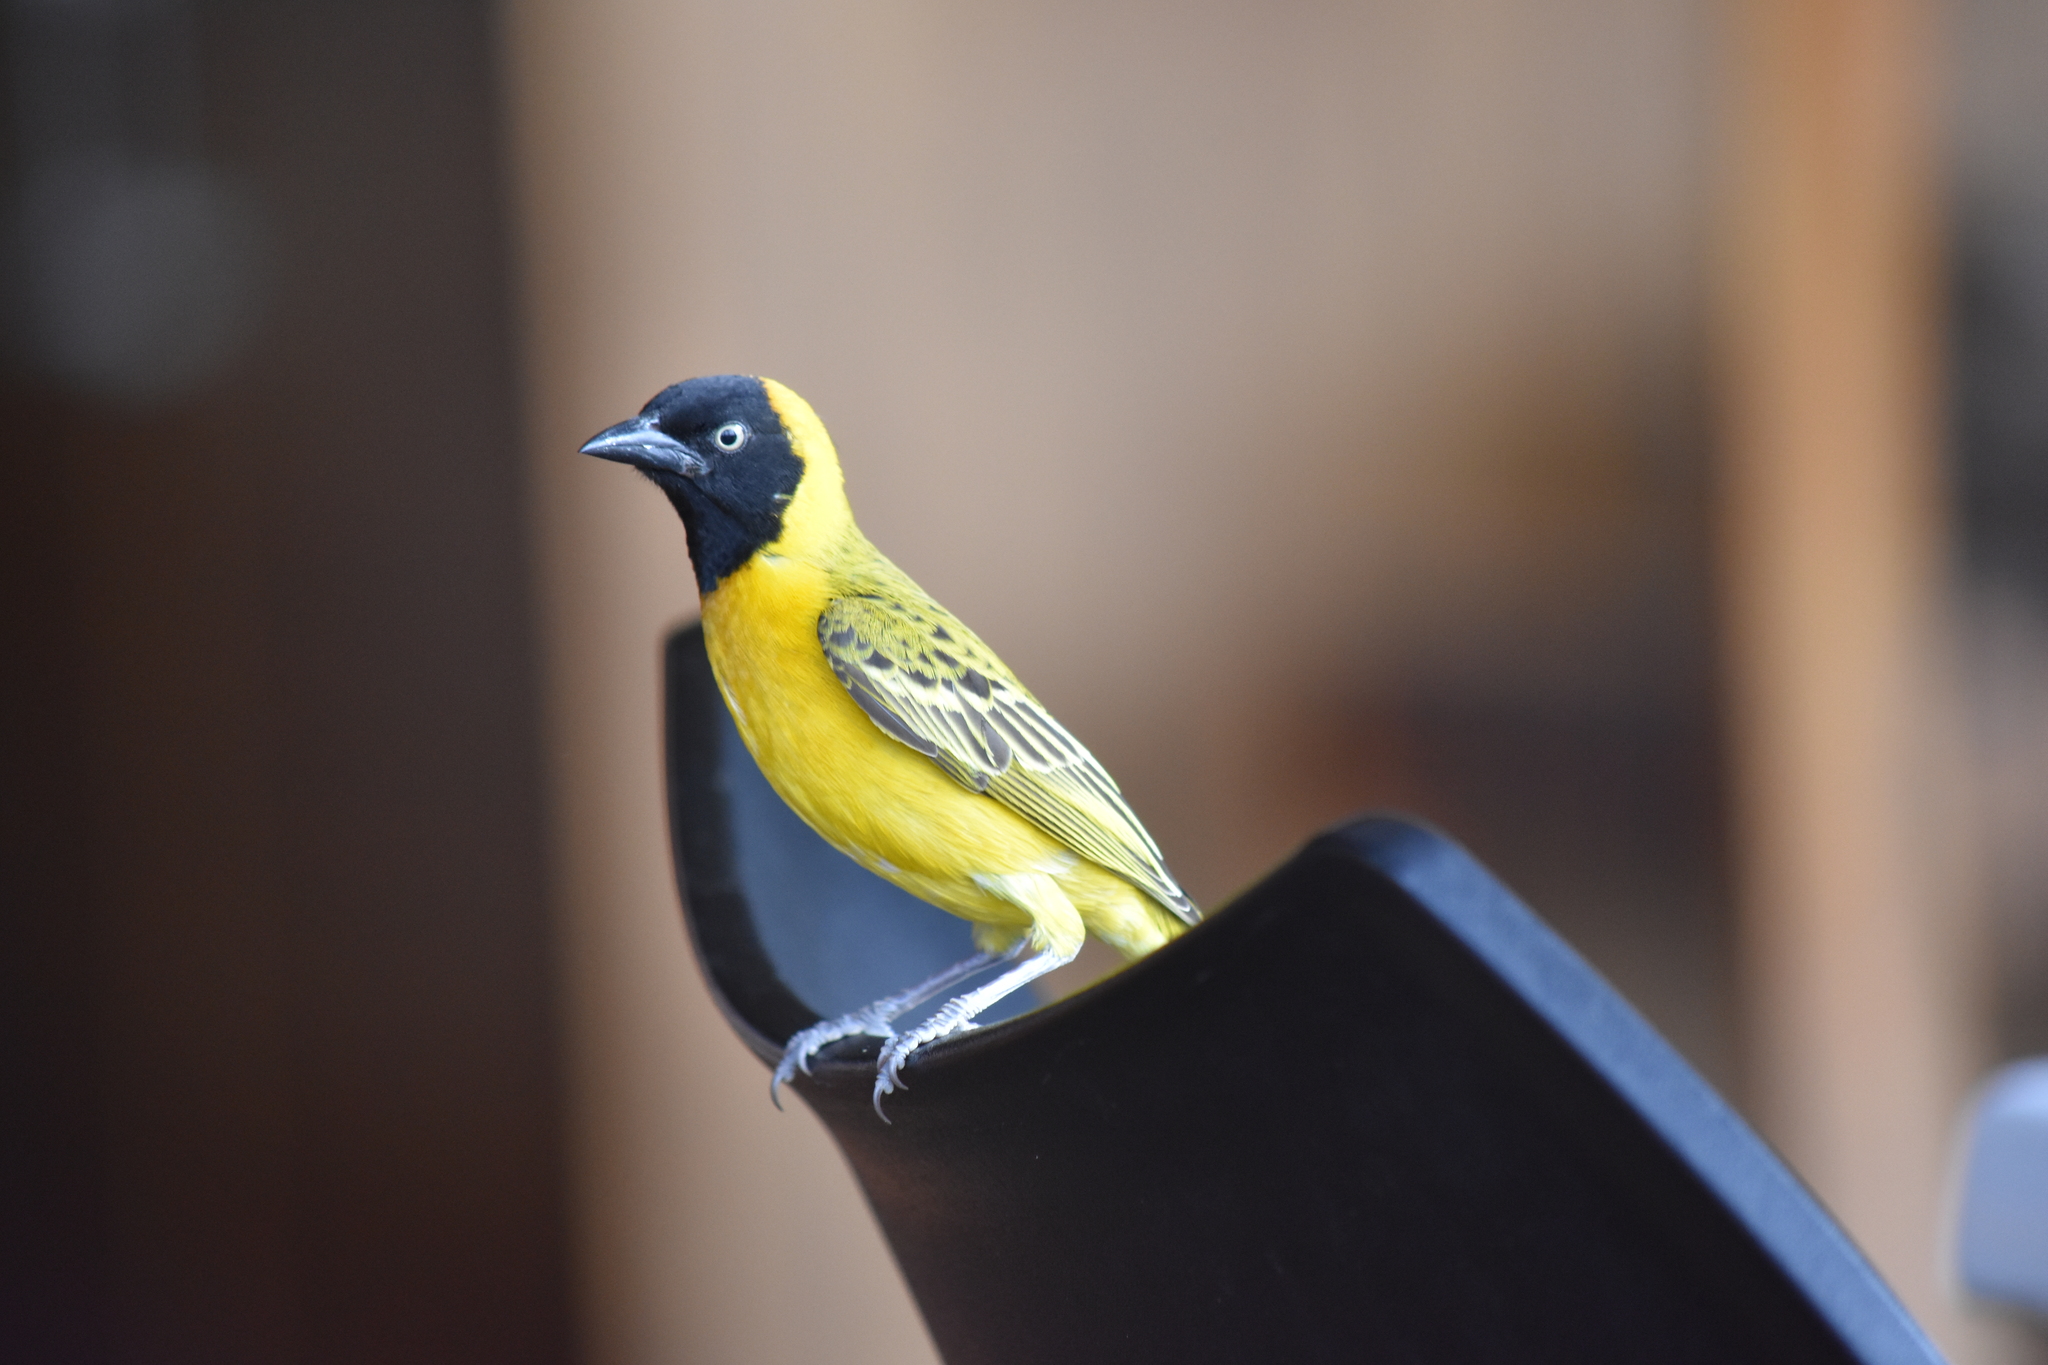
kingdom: Animalia
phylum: Chordata
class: Aves
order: Passeriformes
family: Ploceidae
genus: Ploceus
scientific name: Ploceus intermedius
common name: Lesser masked weaver
